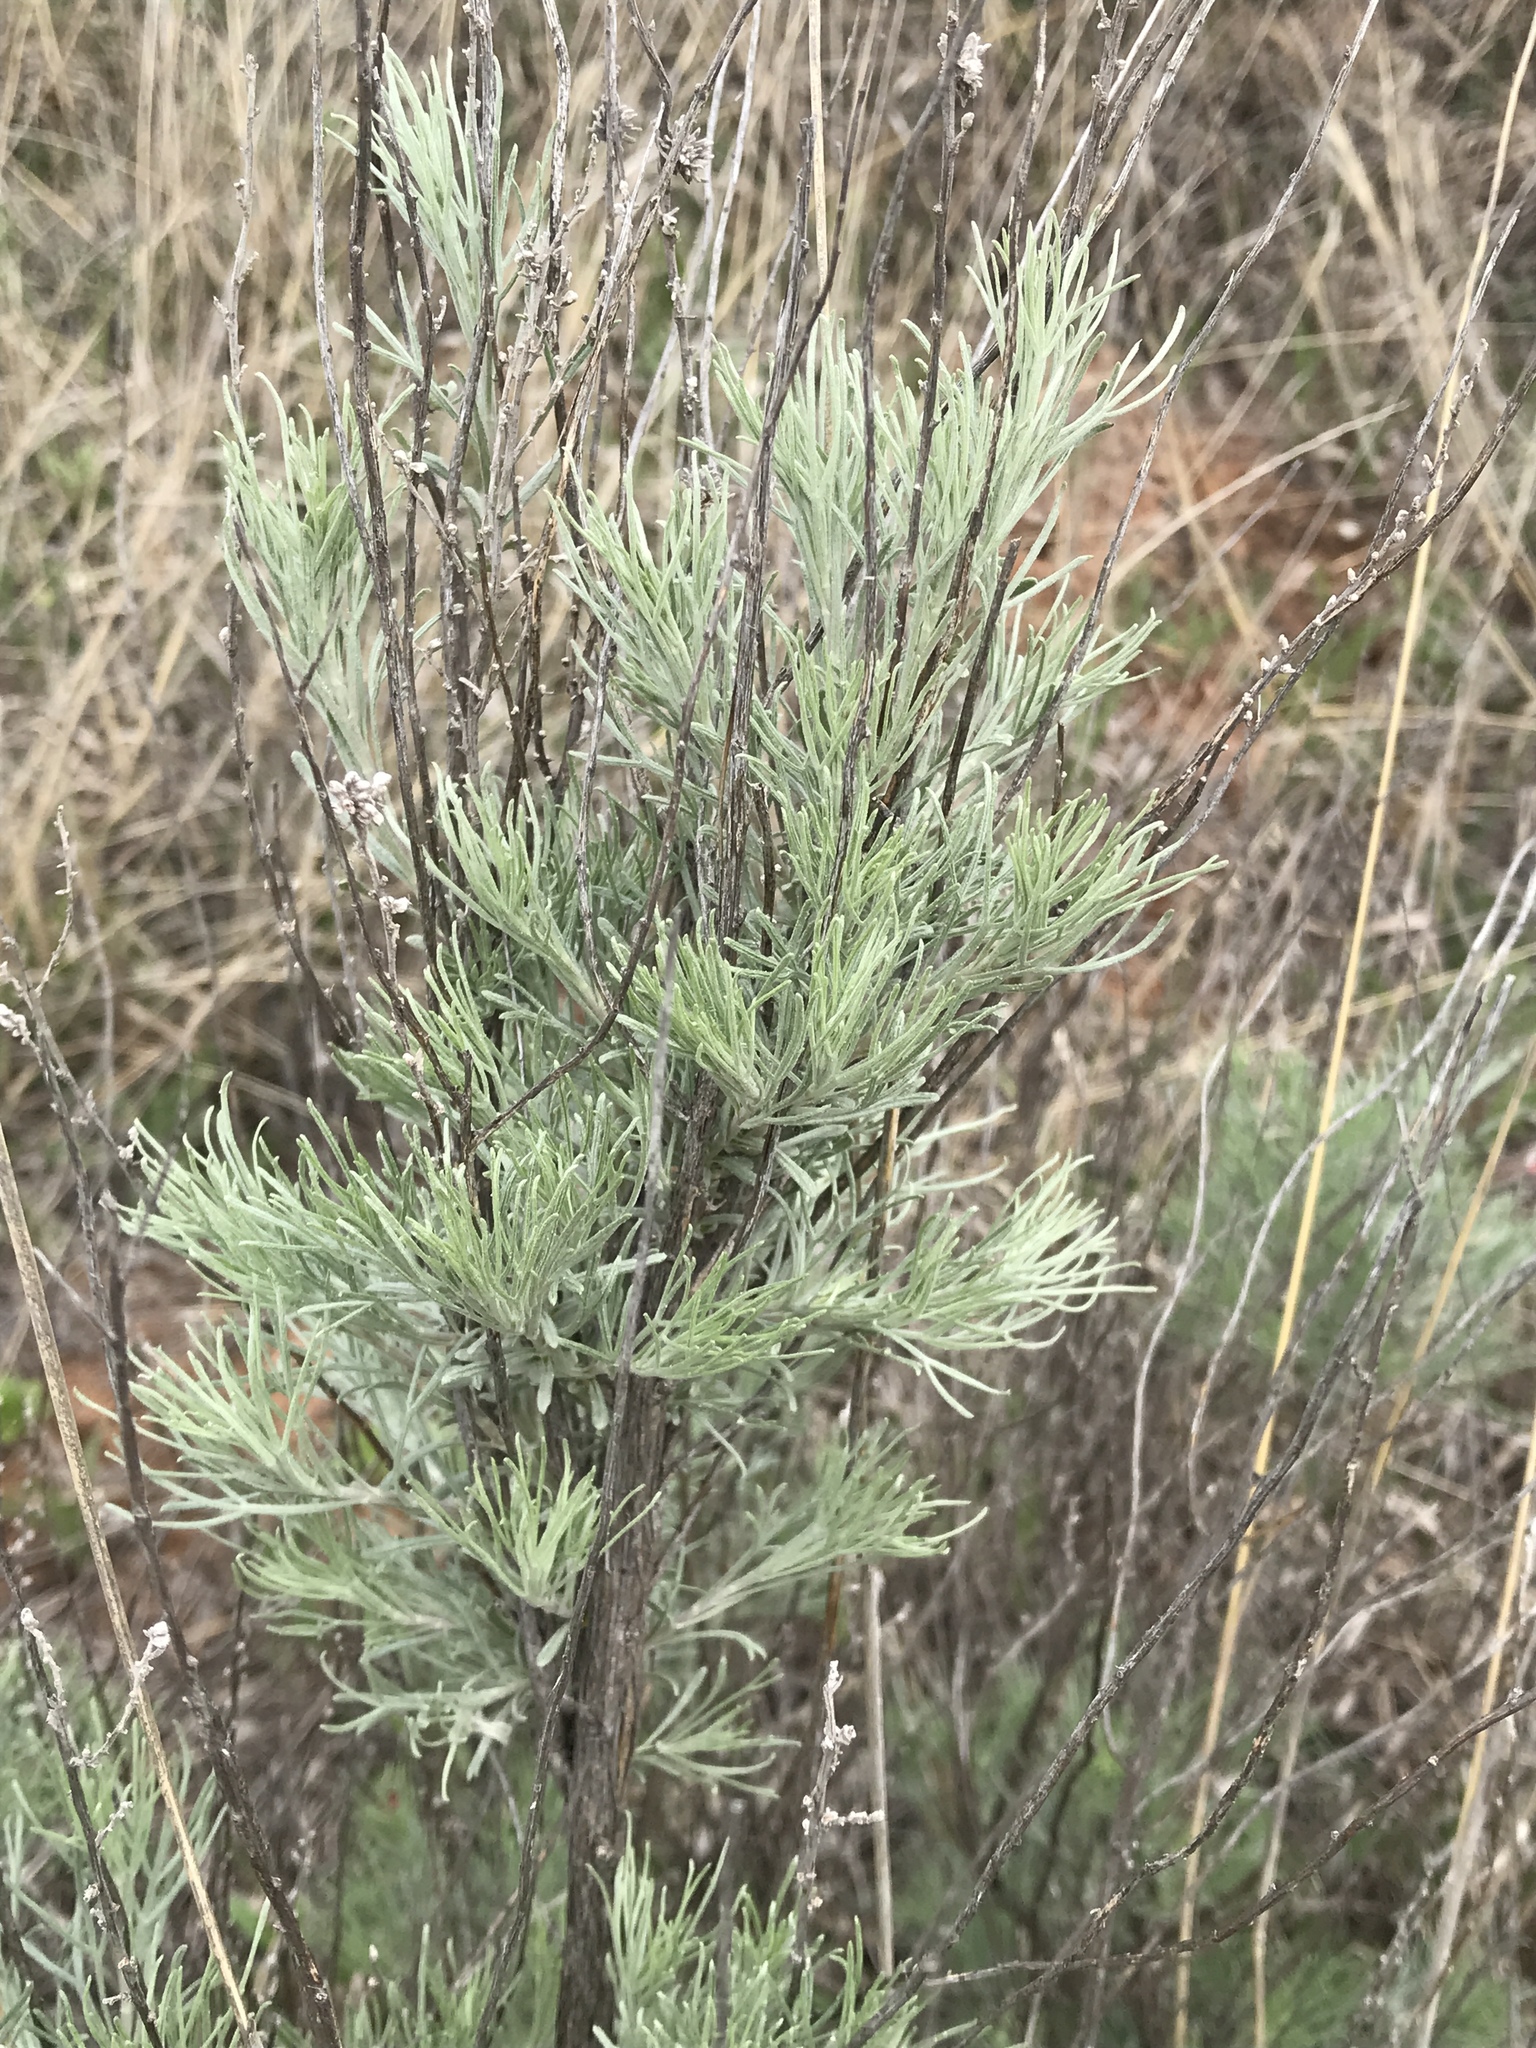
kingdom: Plantae
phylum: Tracheophyta
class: Magnoliopsida
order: Asterales
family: Asteraceae
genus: Artemisia
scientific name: Artemisia filifolia
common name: Sand-sage
